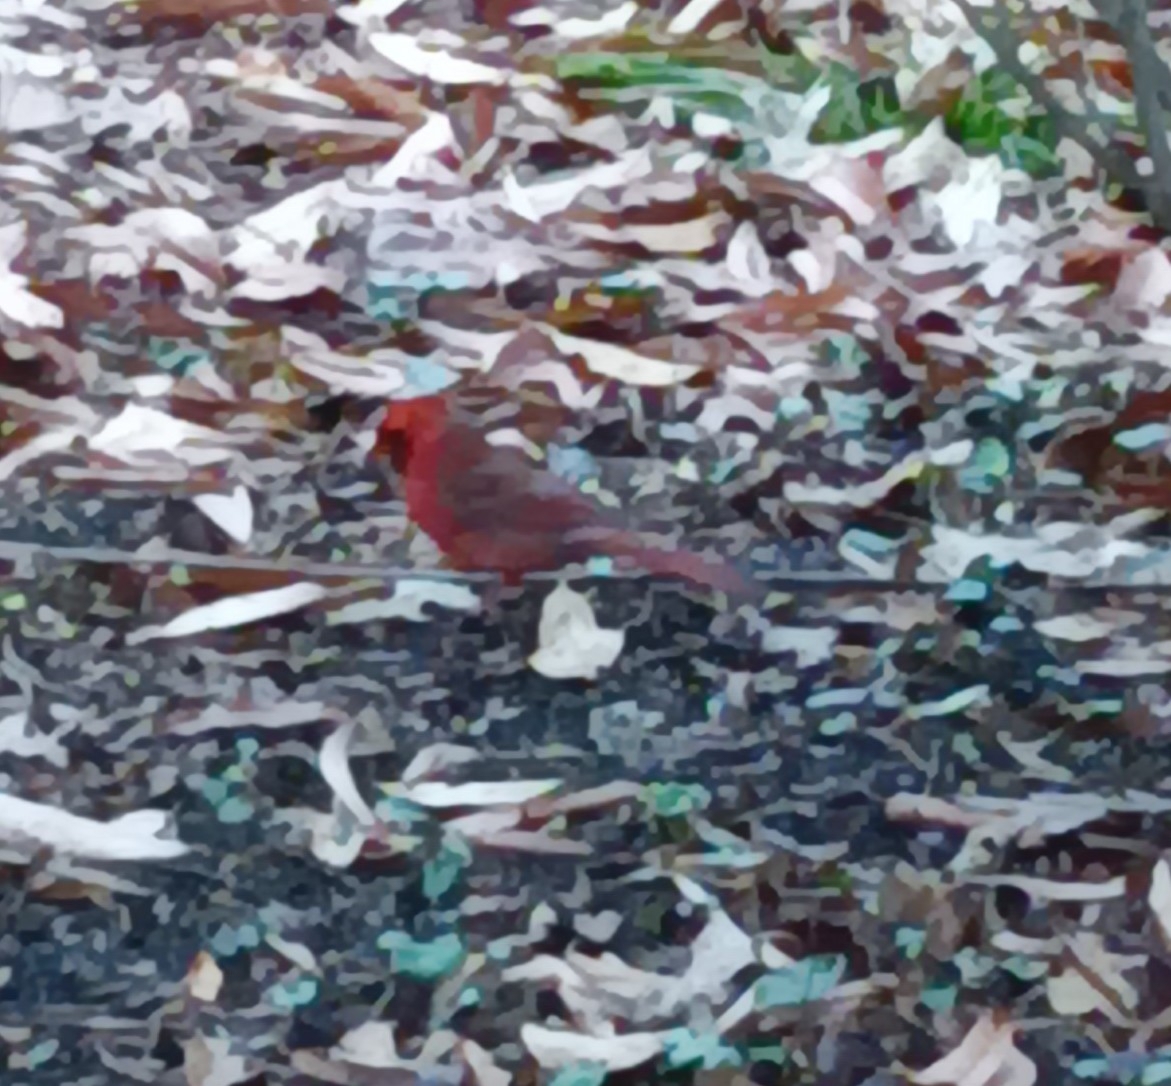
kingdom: Animalia
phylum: Chordata
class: Aves
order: Passeriformes
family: Cardinalidae
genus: Cardinalis
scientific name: Cardinalis cardinalis
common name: Northern cardinal
